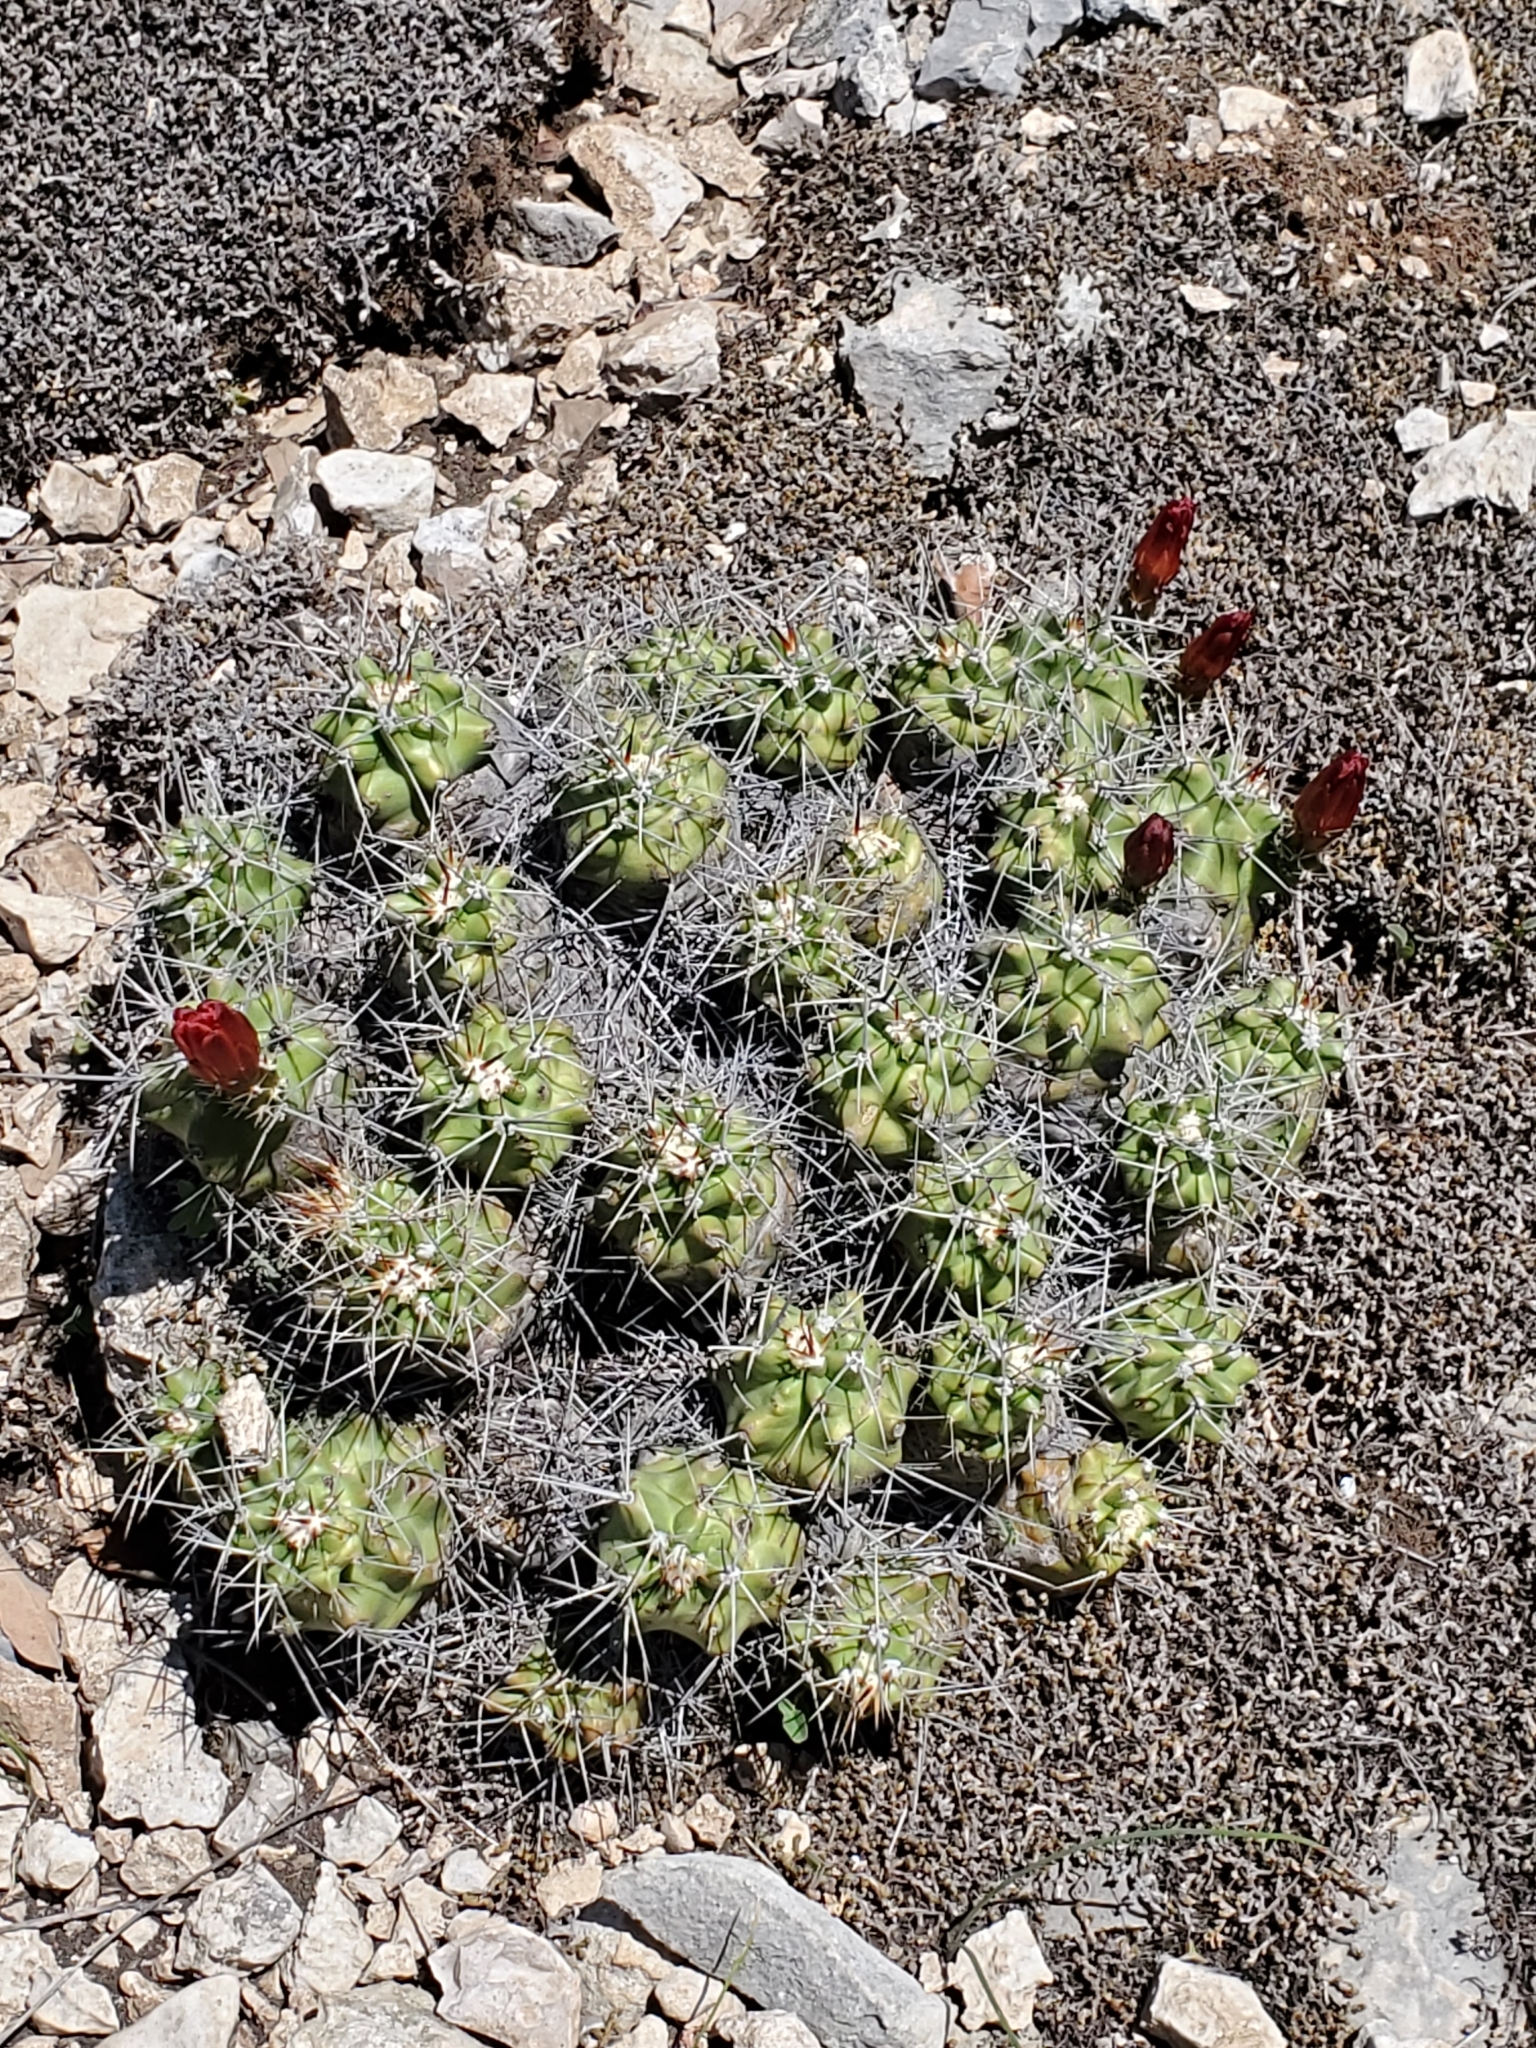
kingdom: Plantae
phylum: Tracheophyta
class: Magnoliopsida
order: Caryophyllales
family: Cactaceae
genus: Echinocereus
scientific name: Echinocereus coccineus
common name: Scarlet hedgehog cactus
